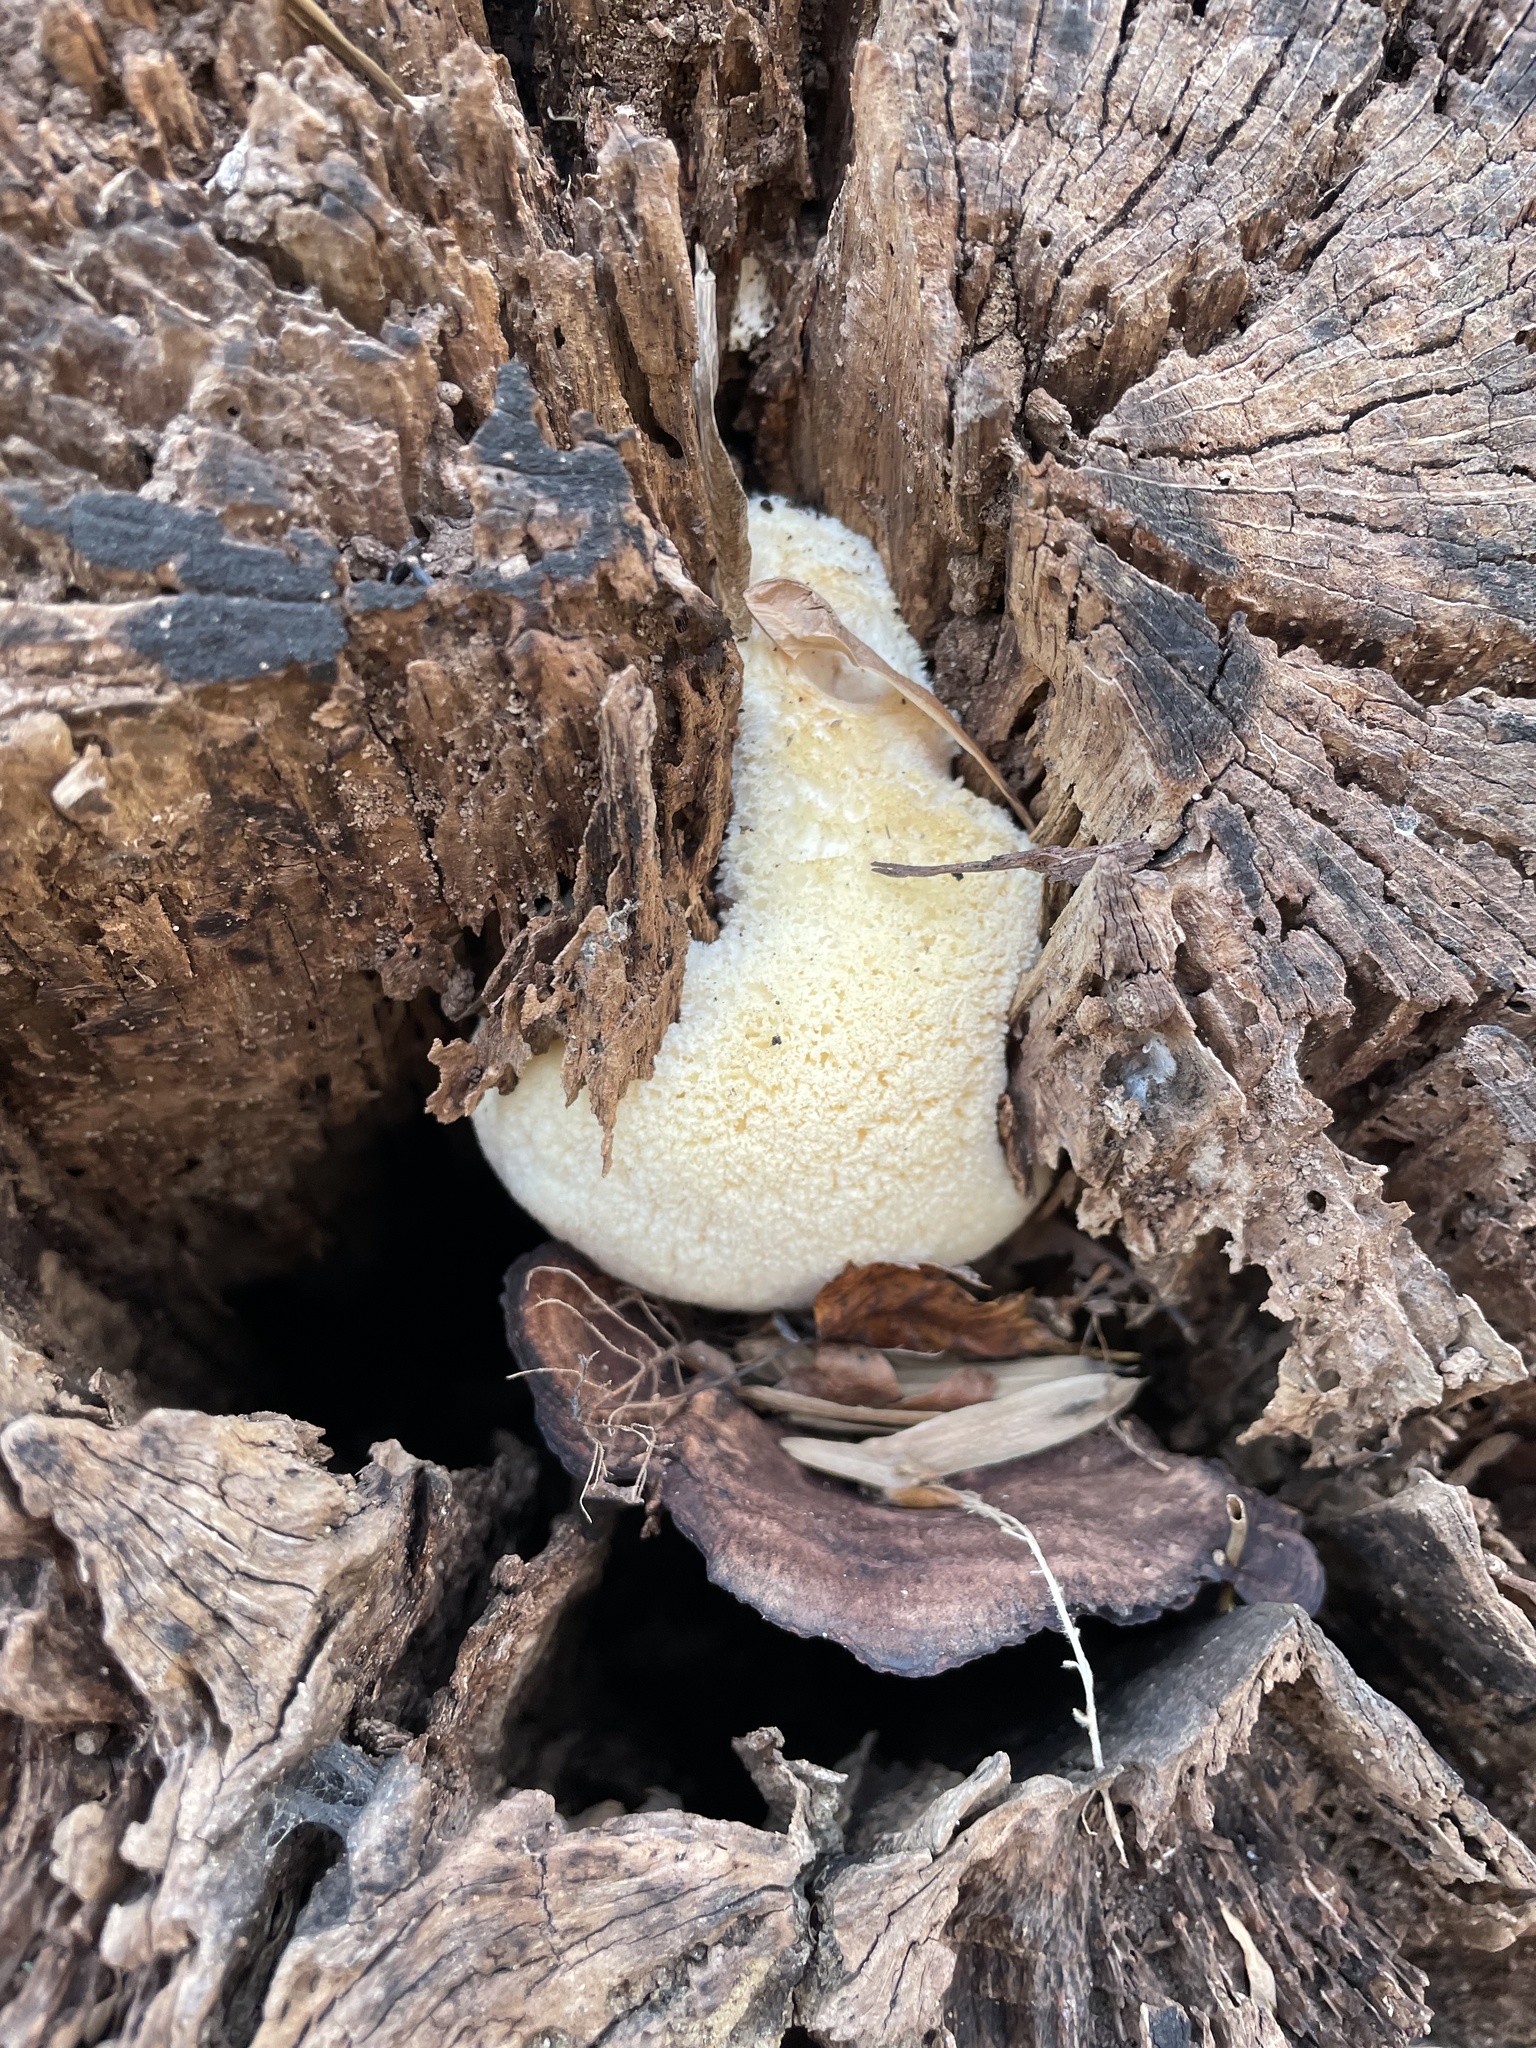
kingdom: Fungi
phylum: Basidiomycota
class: Agaricomycetes
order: Russulales
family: Hericiaceae
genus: Hericium
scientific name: Hericium erinaceus
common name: Bearded tooth
